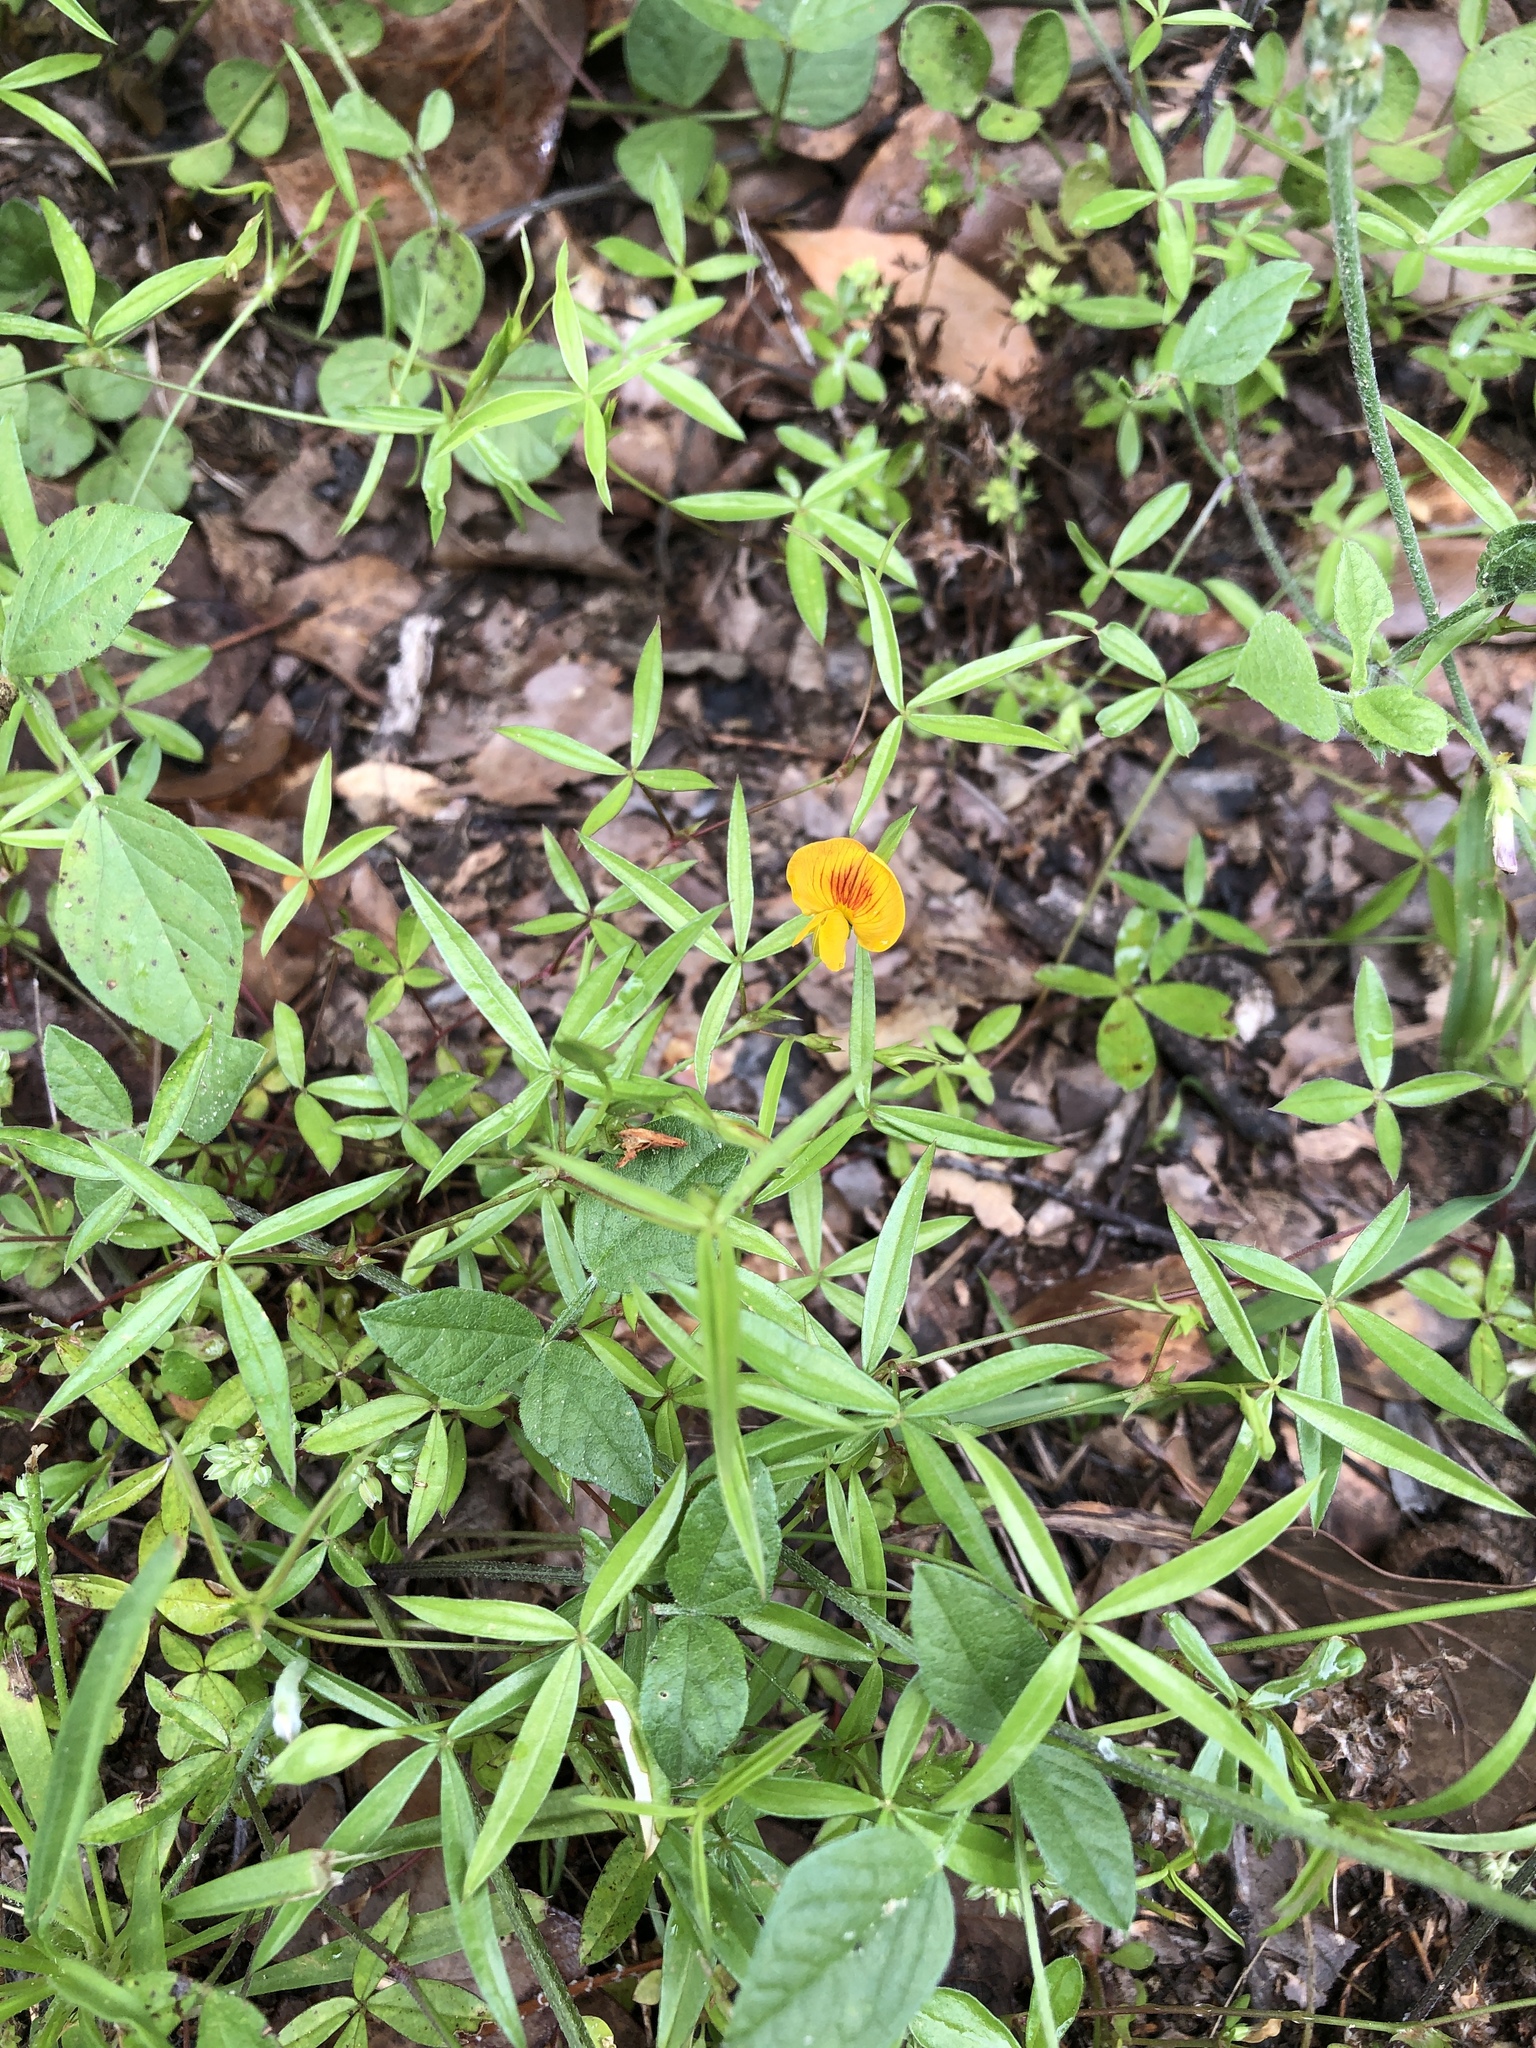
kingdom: Plantae
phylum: Tracheophyta
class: Magnoliopsida
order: Fabales
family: Fabaceae
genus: Zornia
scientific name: Zornia bracteata
